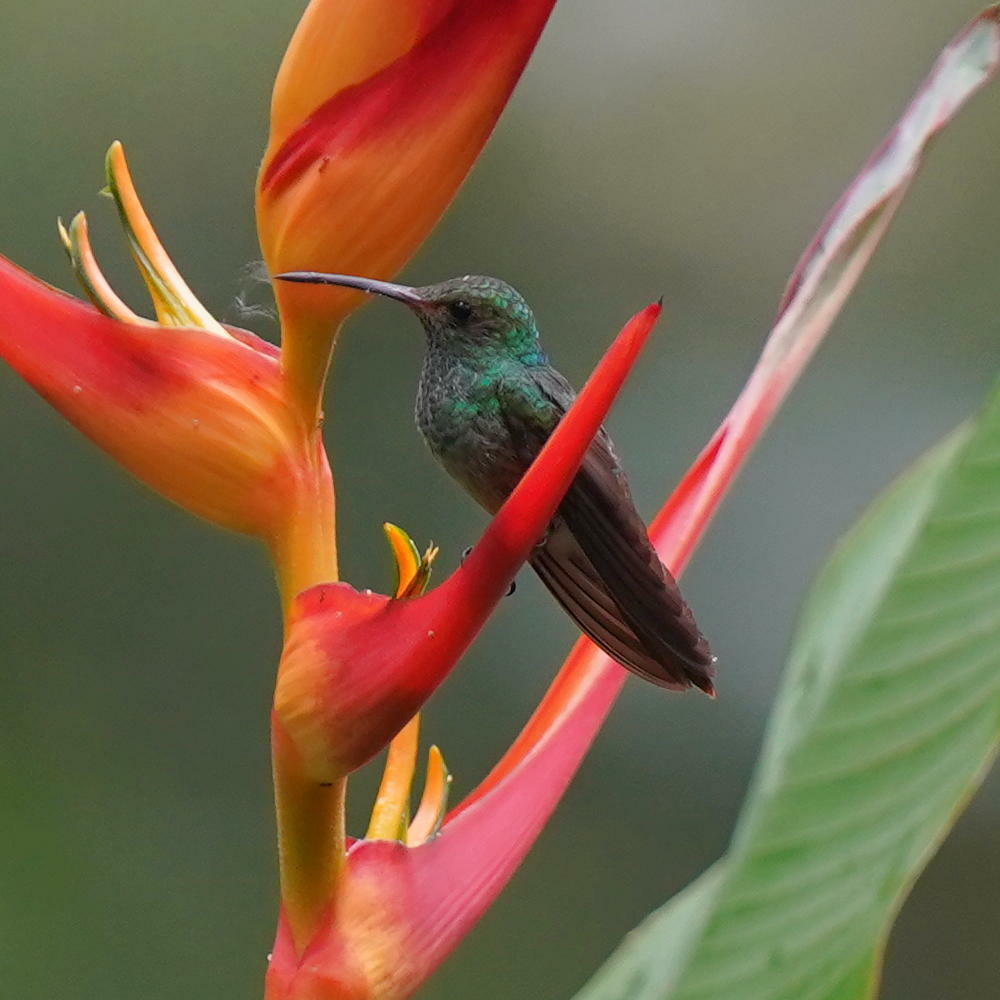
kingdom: Animalia
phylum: Chordata
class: Aves
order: Apodiformes
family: Trochilidae
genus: Amazilia
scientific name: Amazilia tzacatl
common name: Rufous-tailed hummingbird
